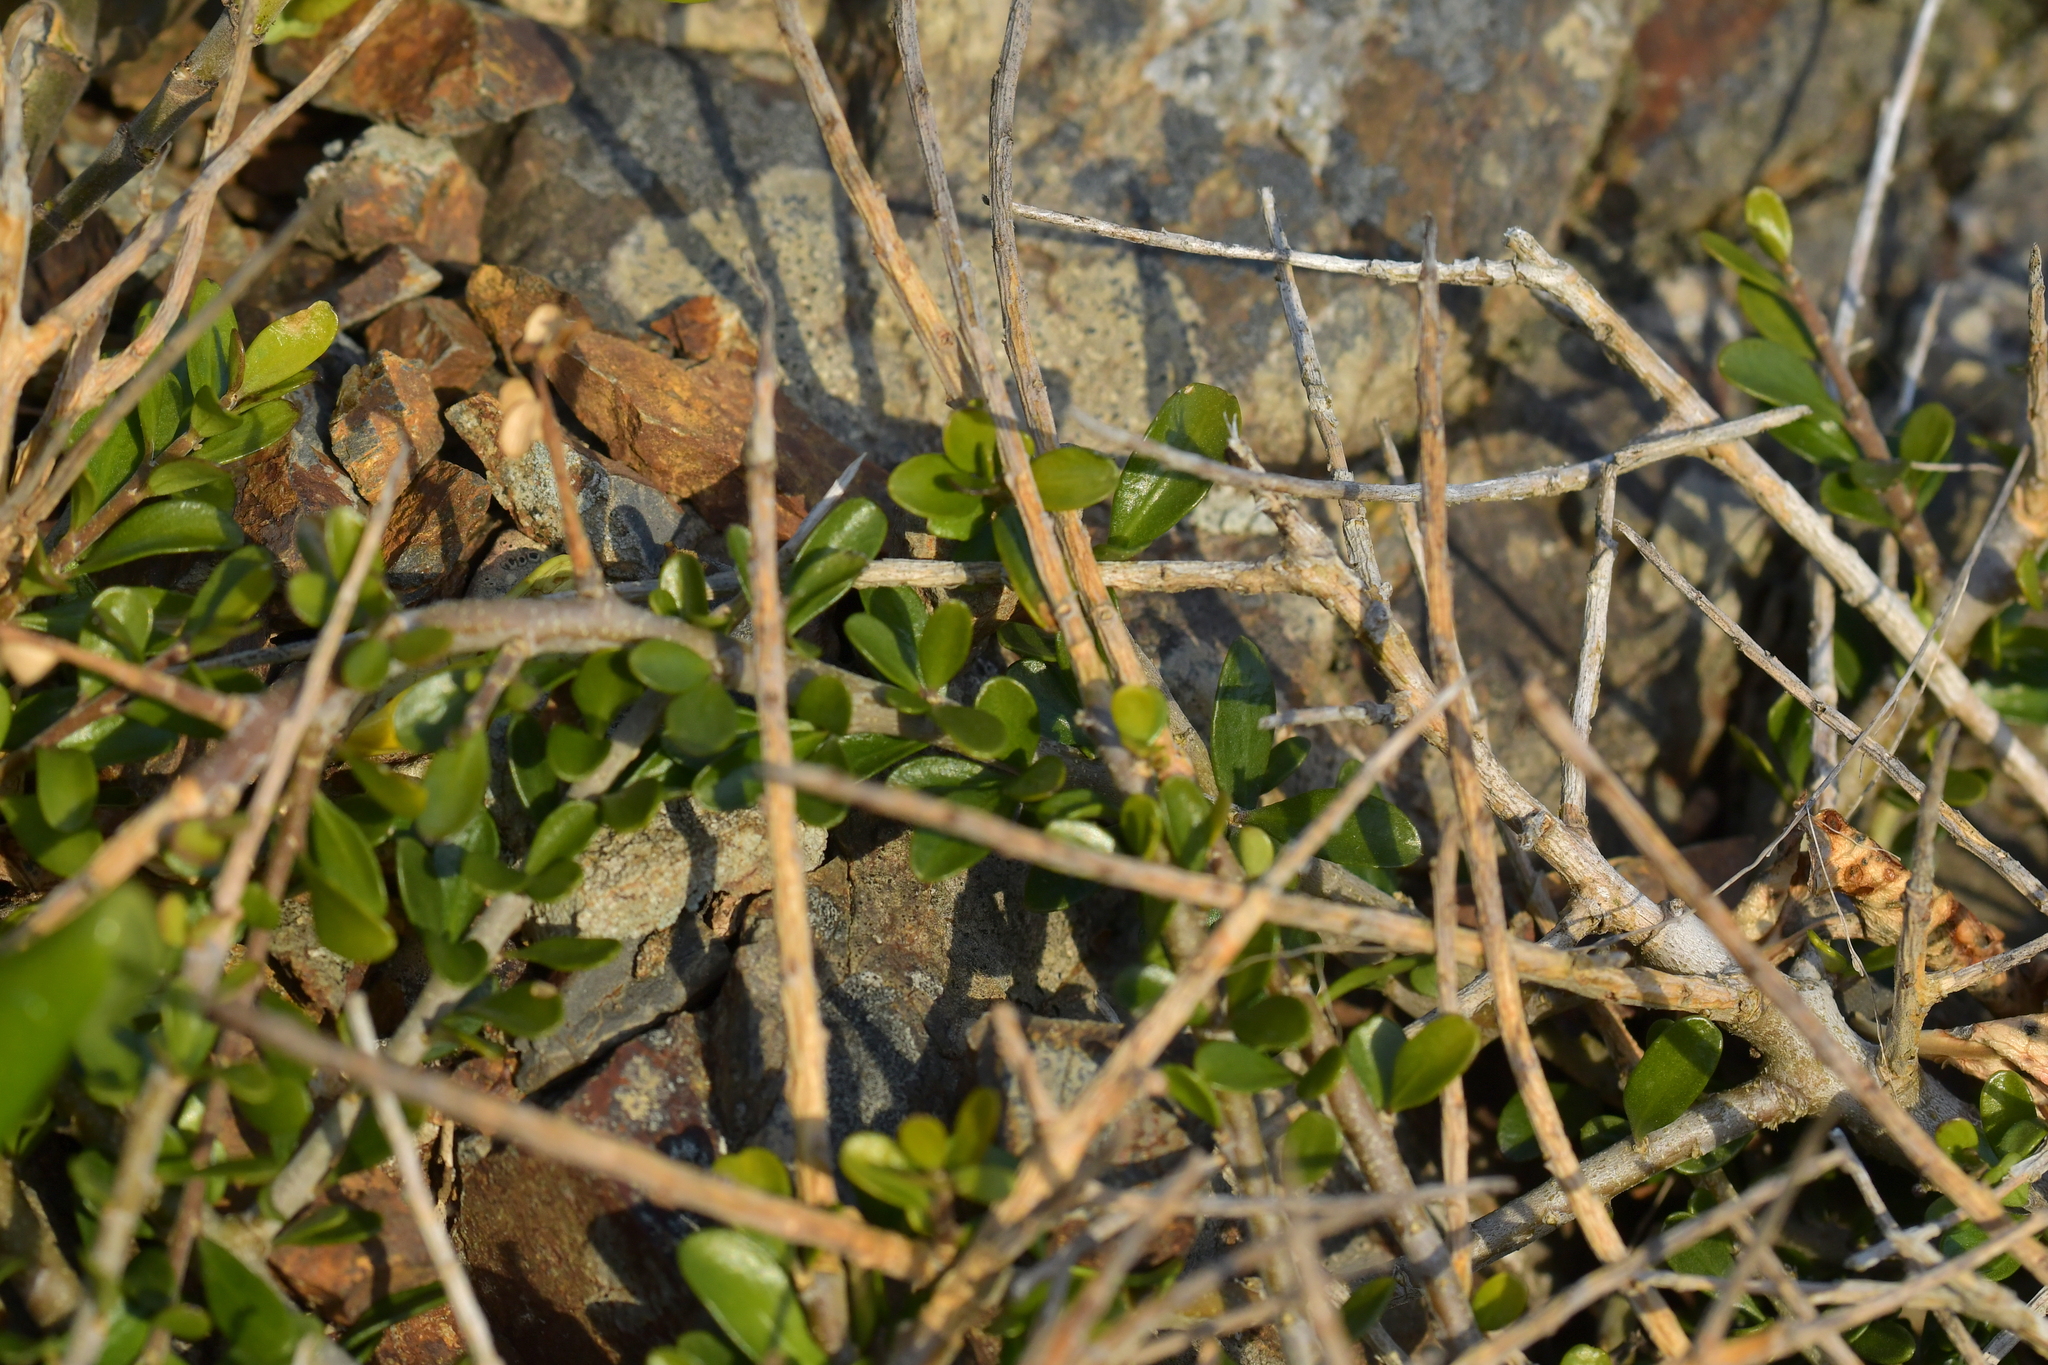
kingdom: Plantae
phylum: Tracheophyta
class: Magnoliopsida
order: Malpighiales
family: Violaceae
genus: Melicytus
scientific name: Melicytus crassifolius
